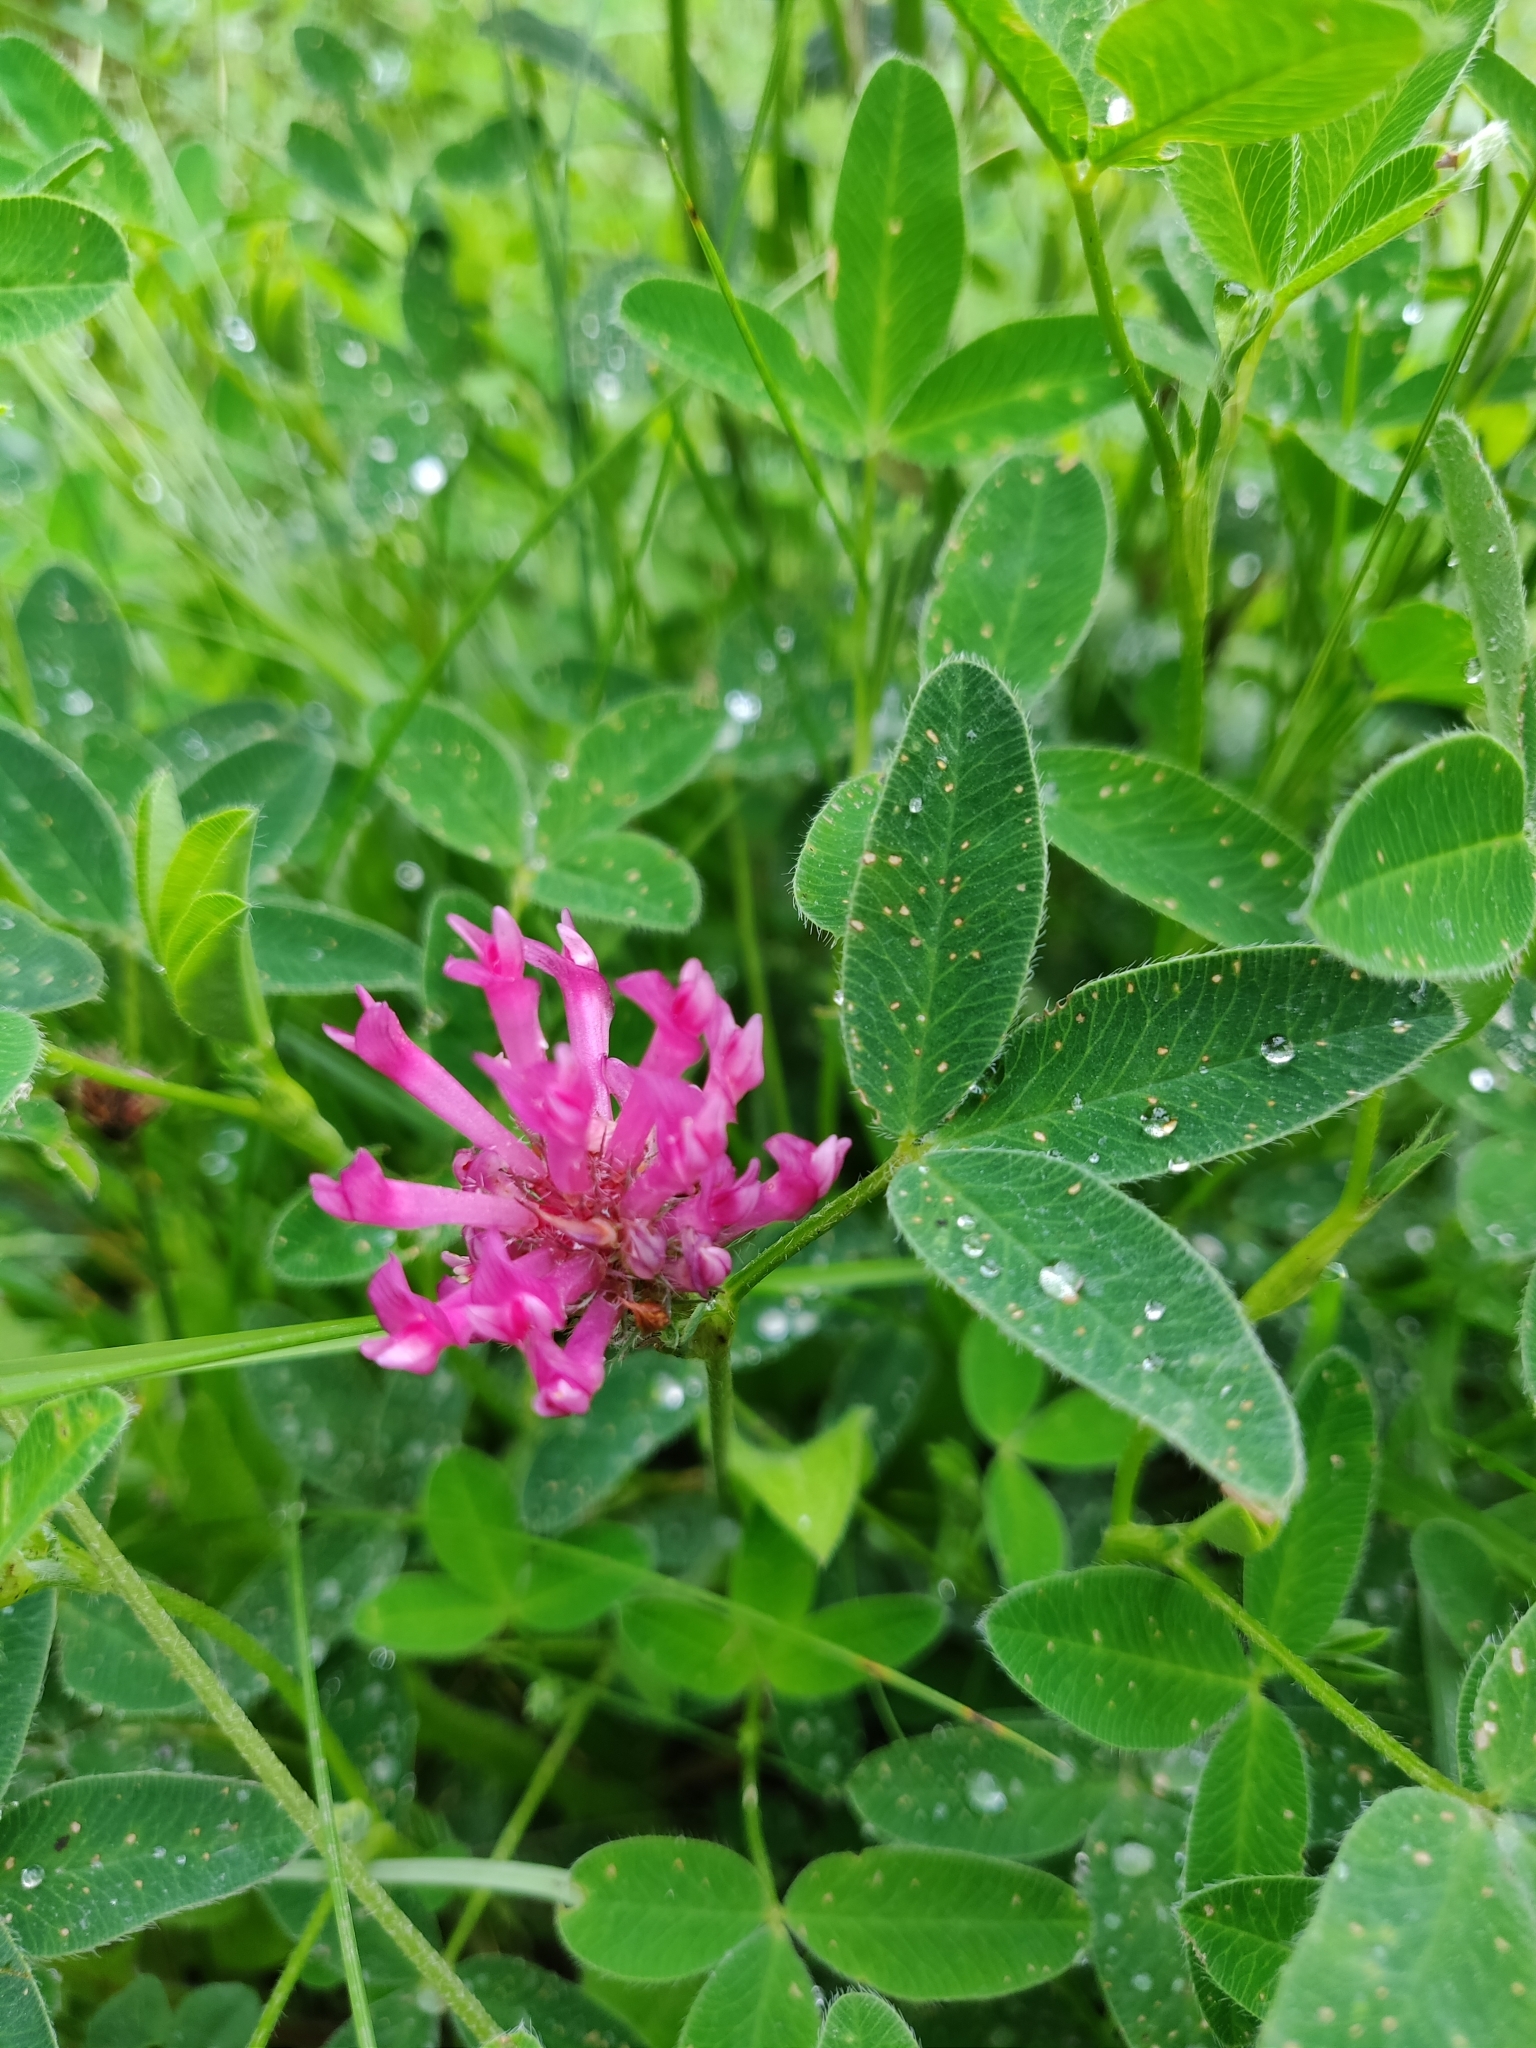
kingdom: Plantae
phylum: Tracheophyta
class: Magnoliopsida
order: Fabales
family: Fabaceae
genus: Trifolium
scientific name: Trifolium medium
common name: Zigzag clover
